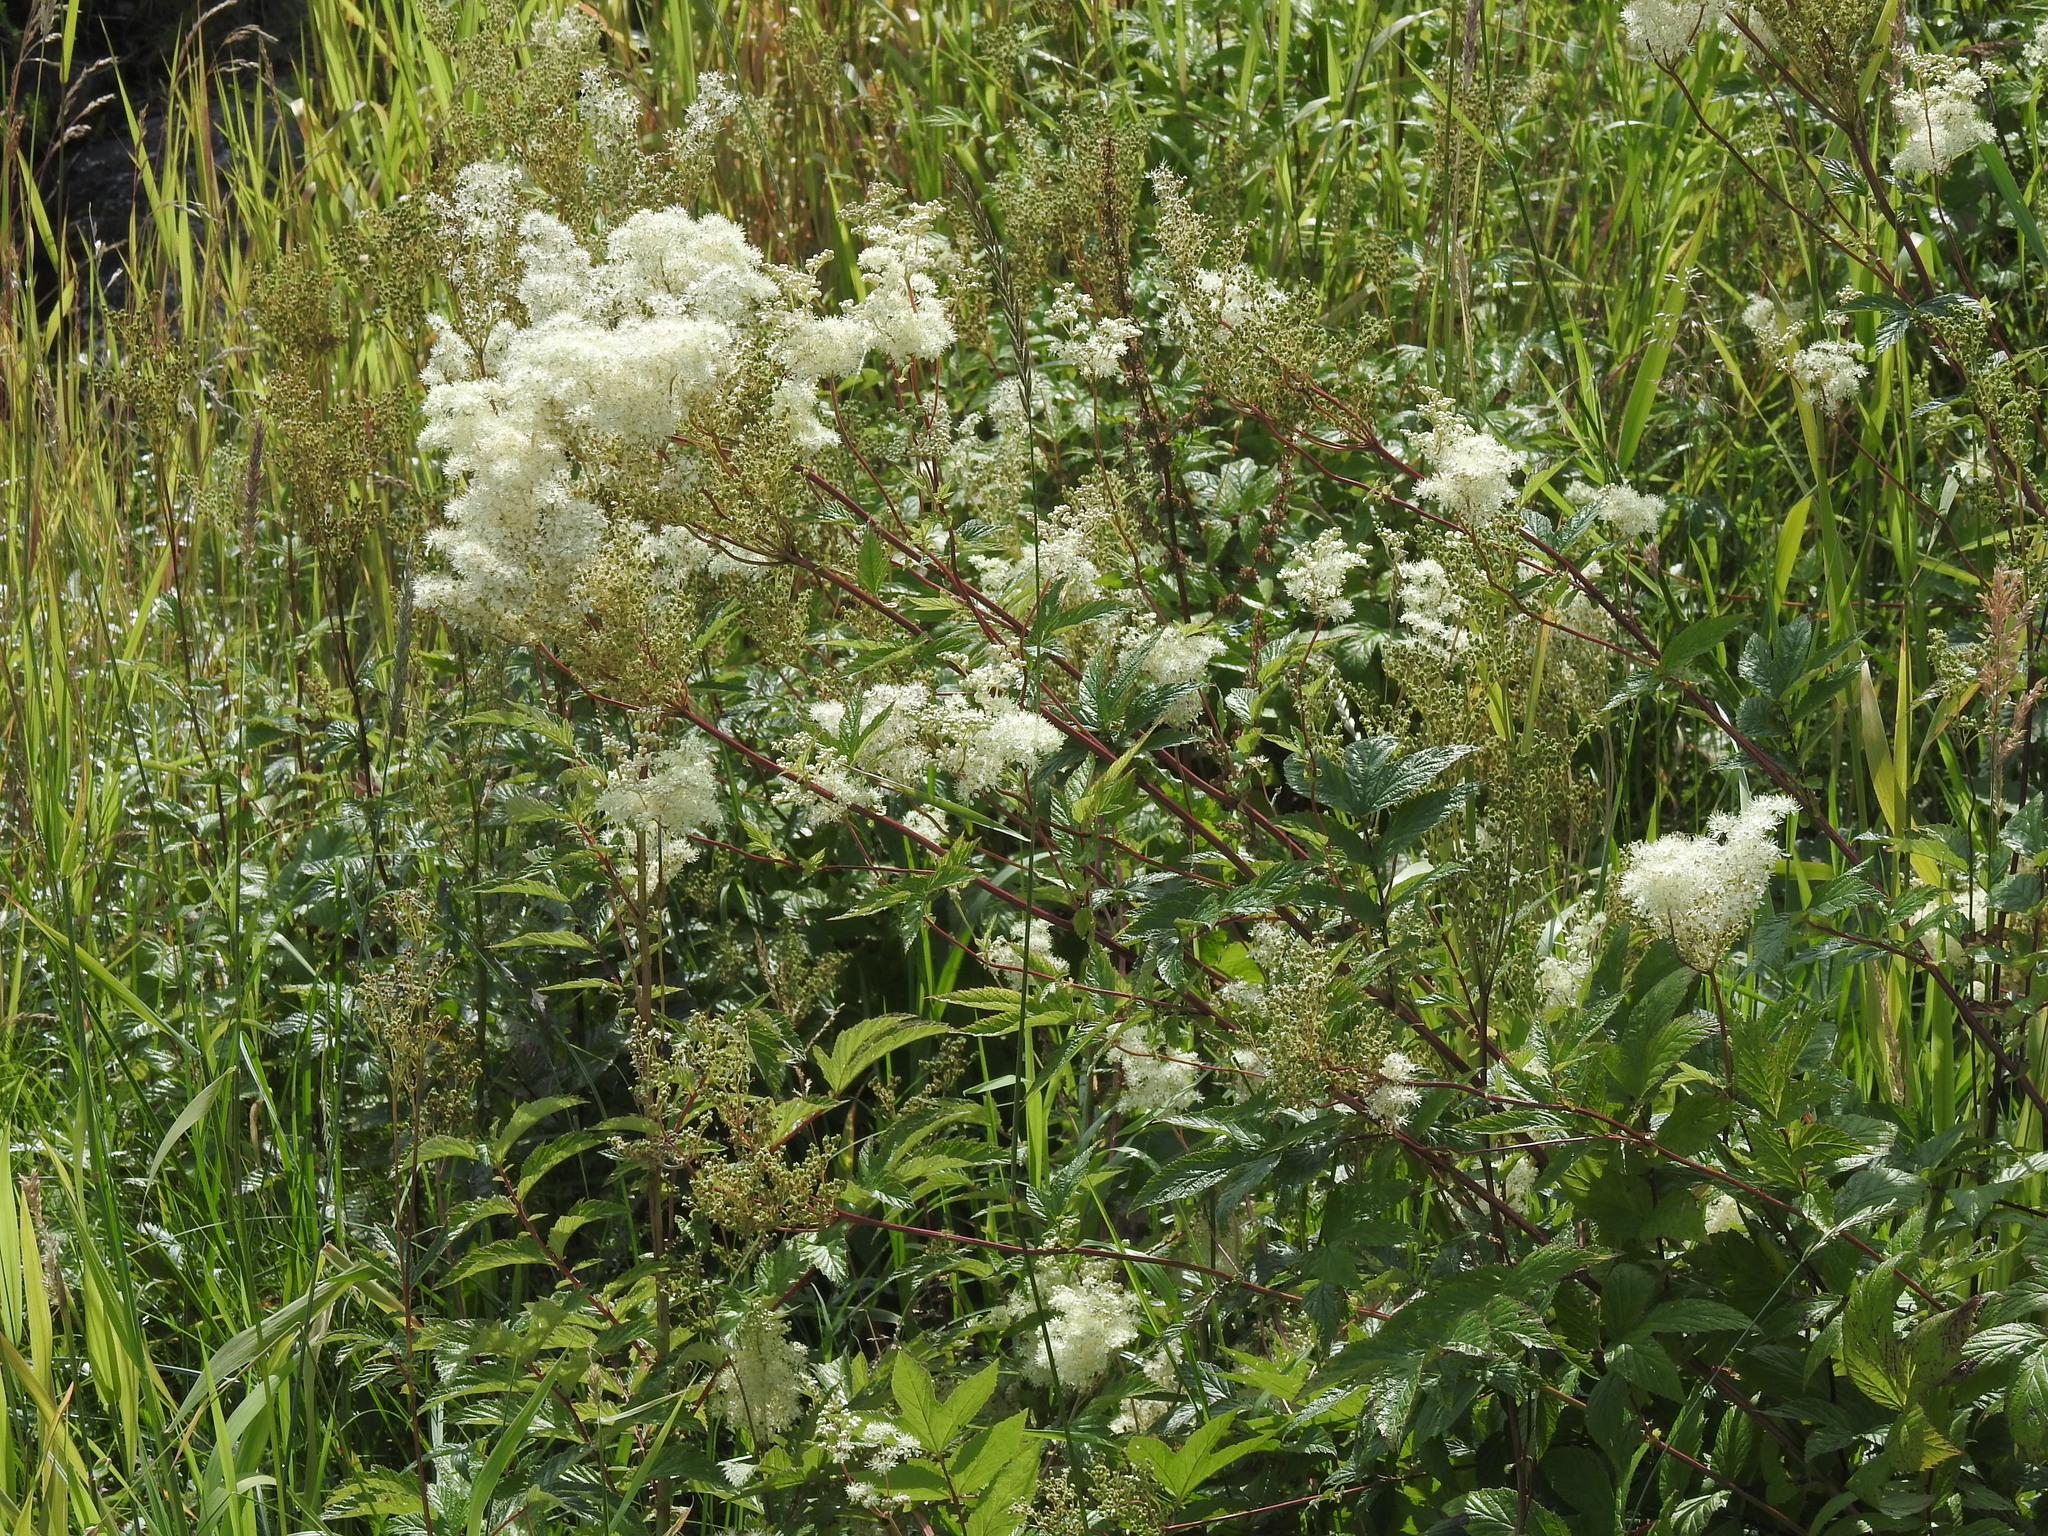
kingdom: Plantae
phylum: Tracheophyta
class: Magnoliopsida
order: Rosales
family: Rosaceae
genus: Filipendula
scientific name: Filipendula ulmaria
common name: Meadowsweet
